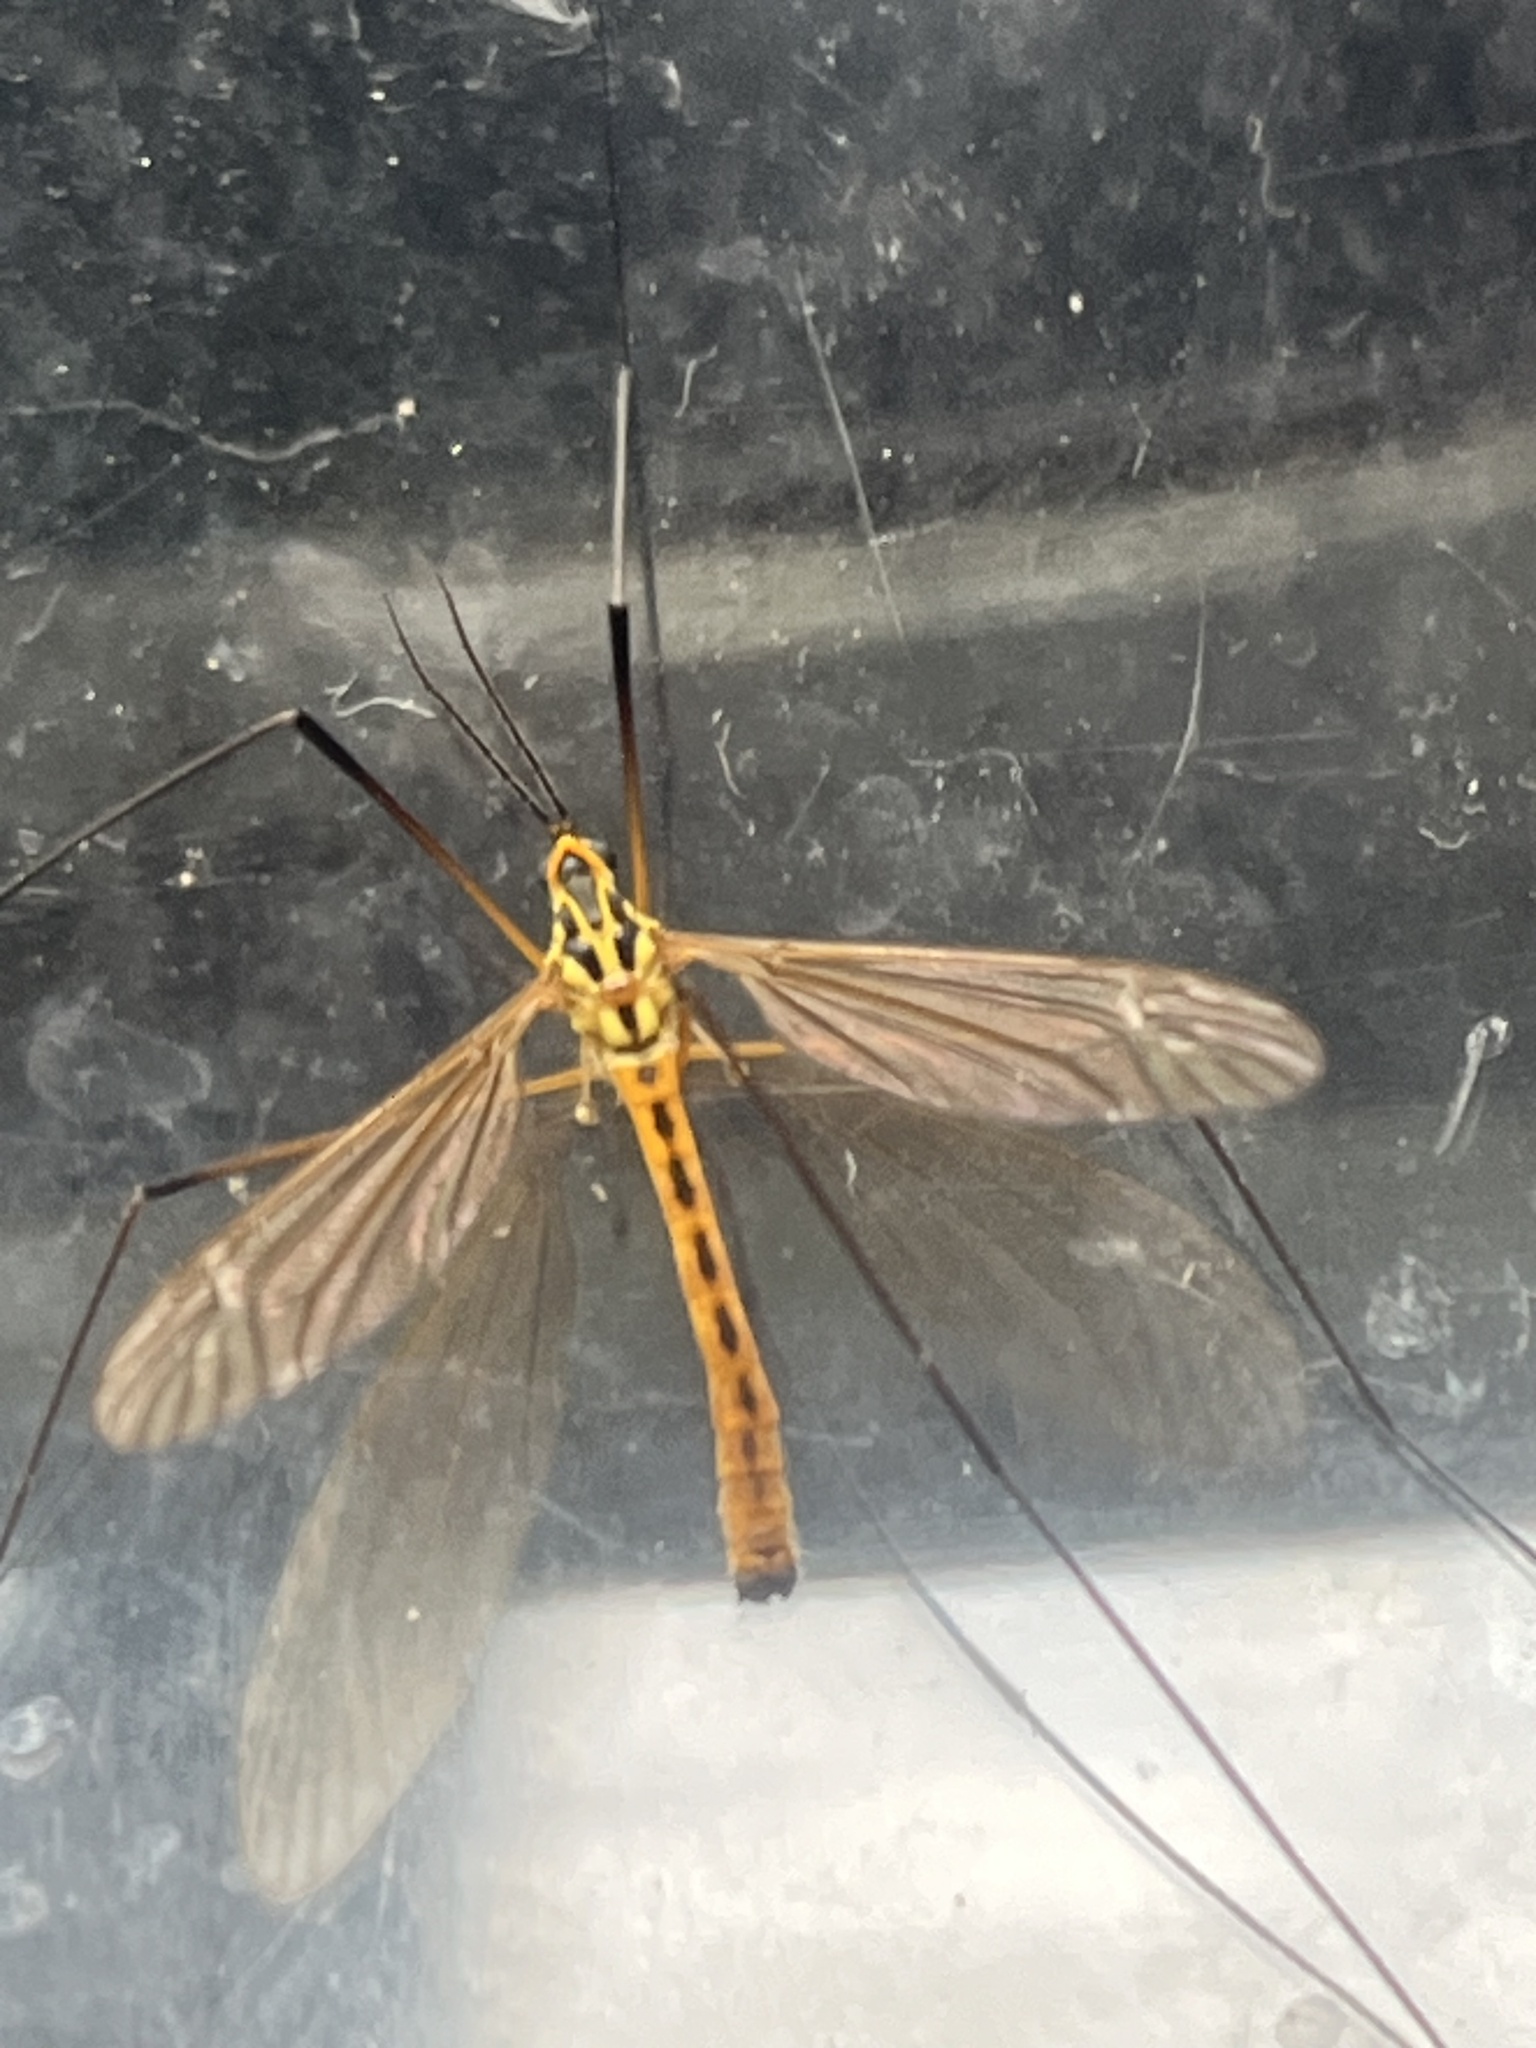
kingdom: Animalia
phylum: Arthropoda
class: Insecta
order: Diptera
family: Tipulidae
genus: Nephrotoma
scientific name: Nephrotoma flavescens
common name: Tiger cranefly
